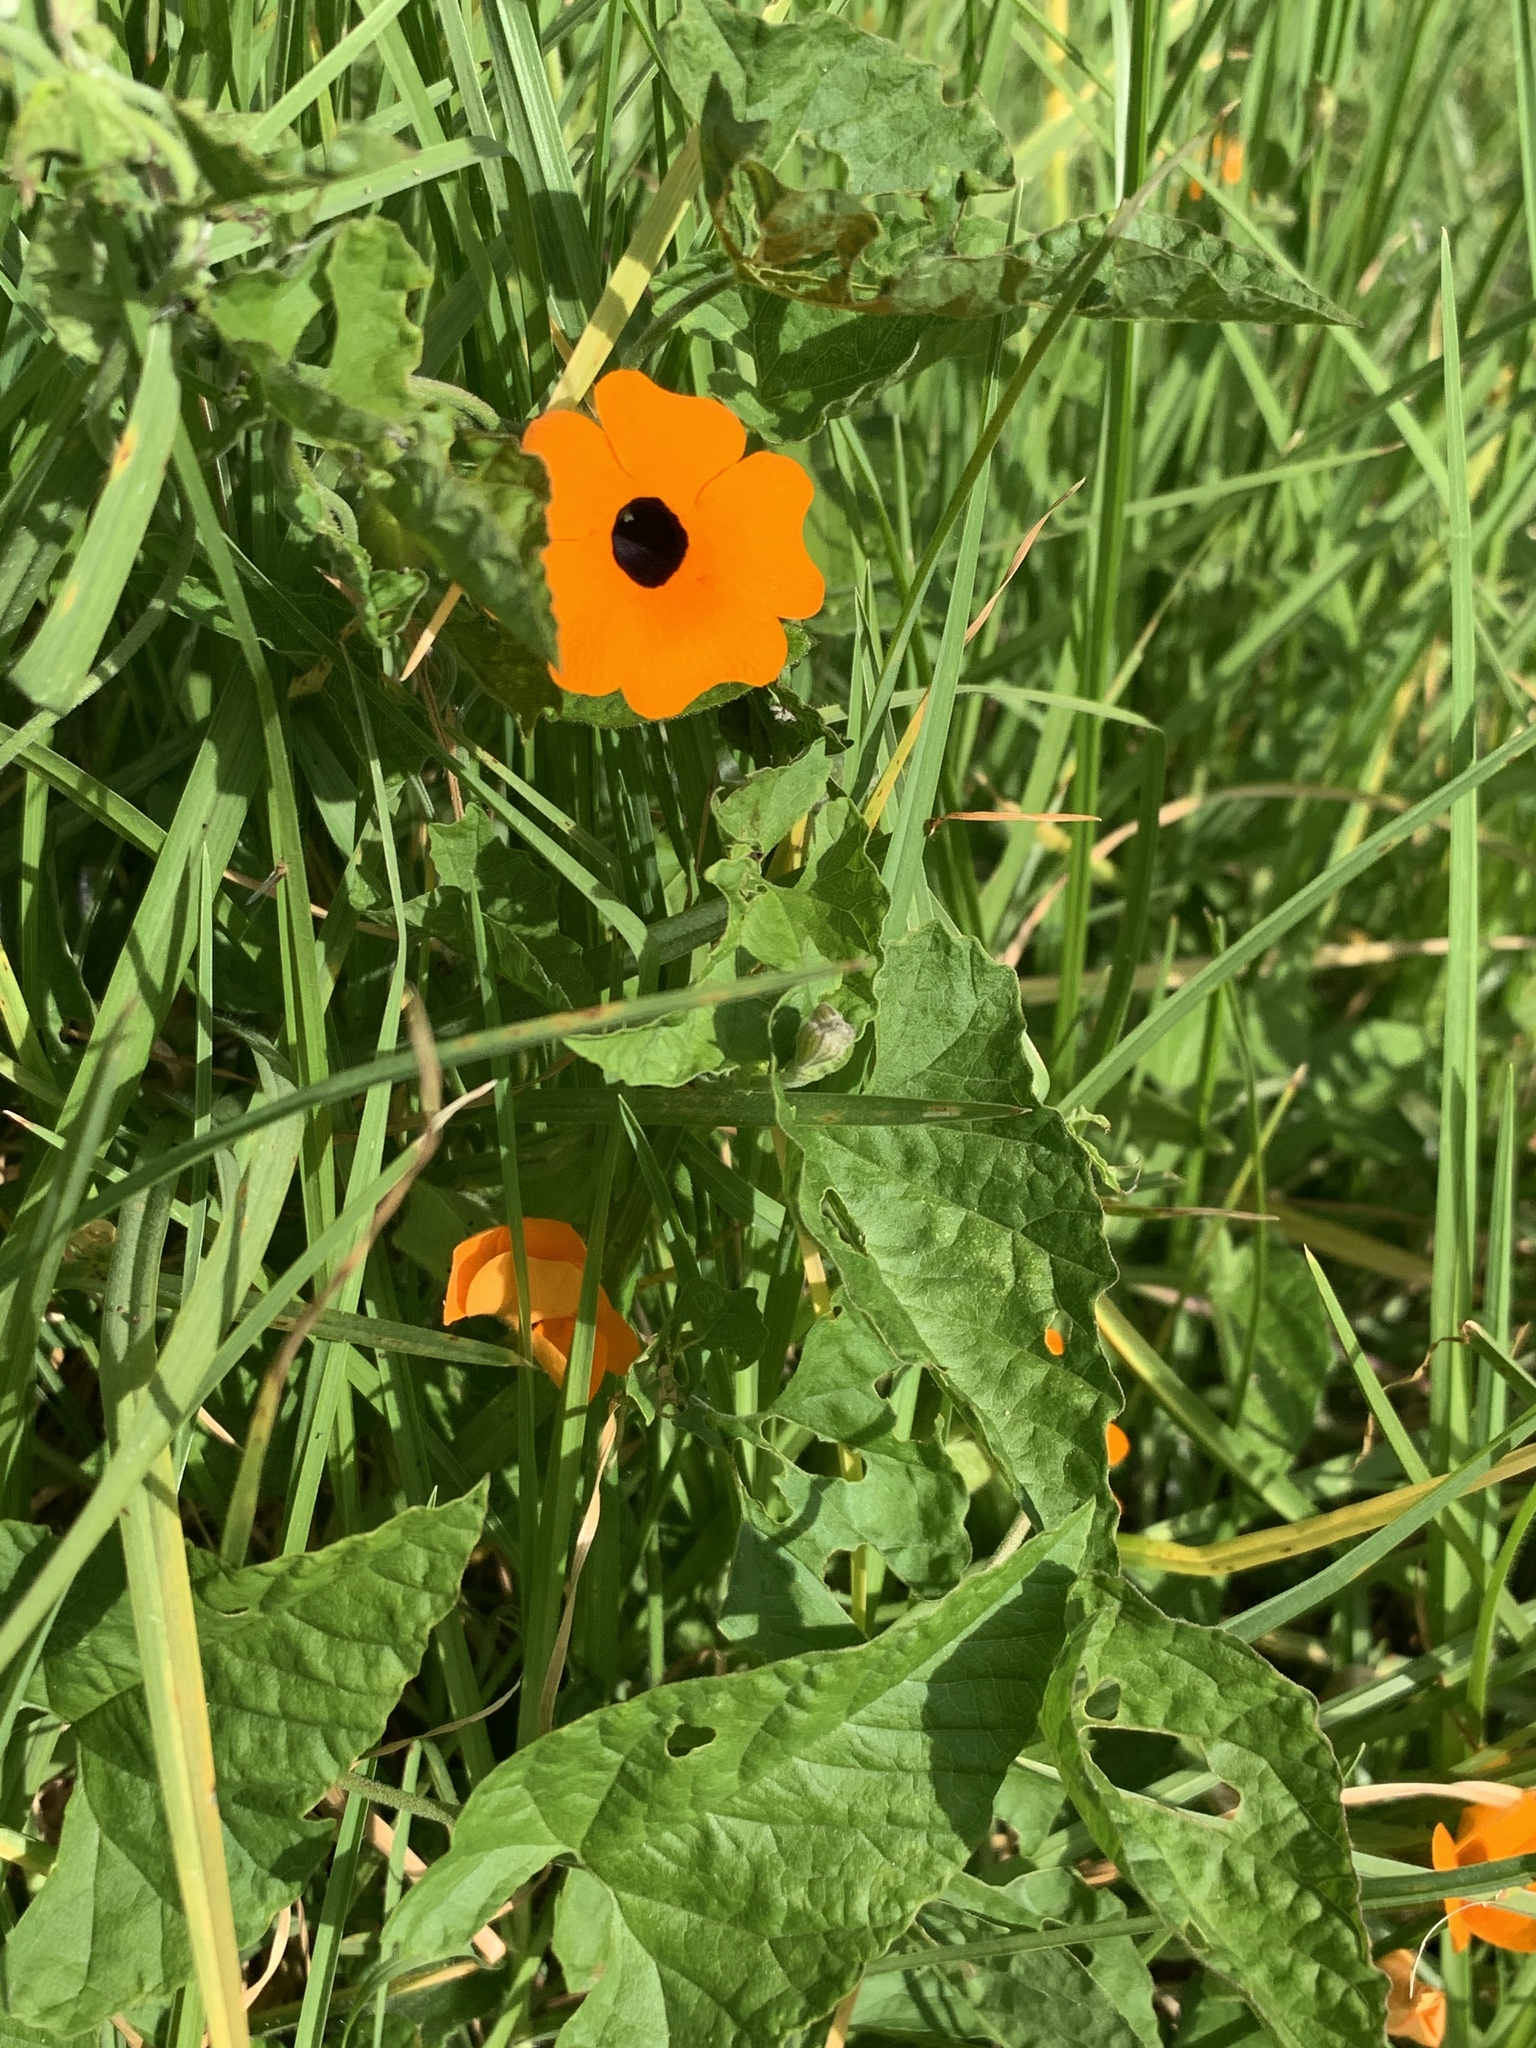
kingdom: Plantae
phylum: Tracheophyta
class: Magnoliopsida
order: Lamiales
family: Acanthaceae
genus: Thunbergia
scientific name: Thunbergia alata
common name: Blackeyed susan vine
